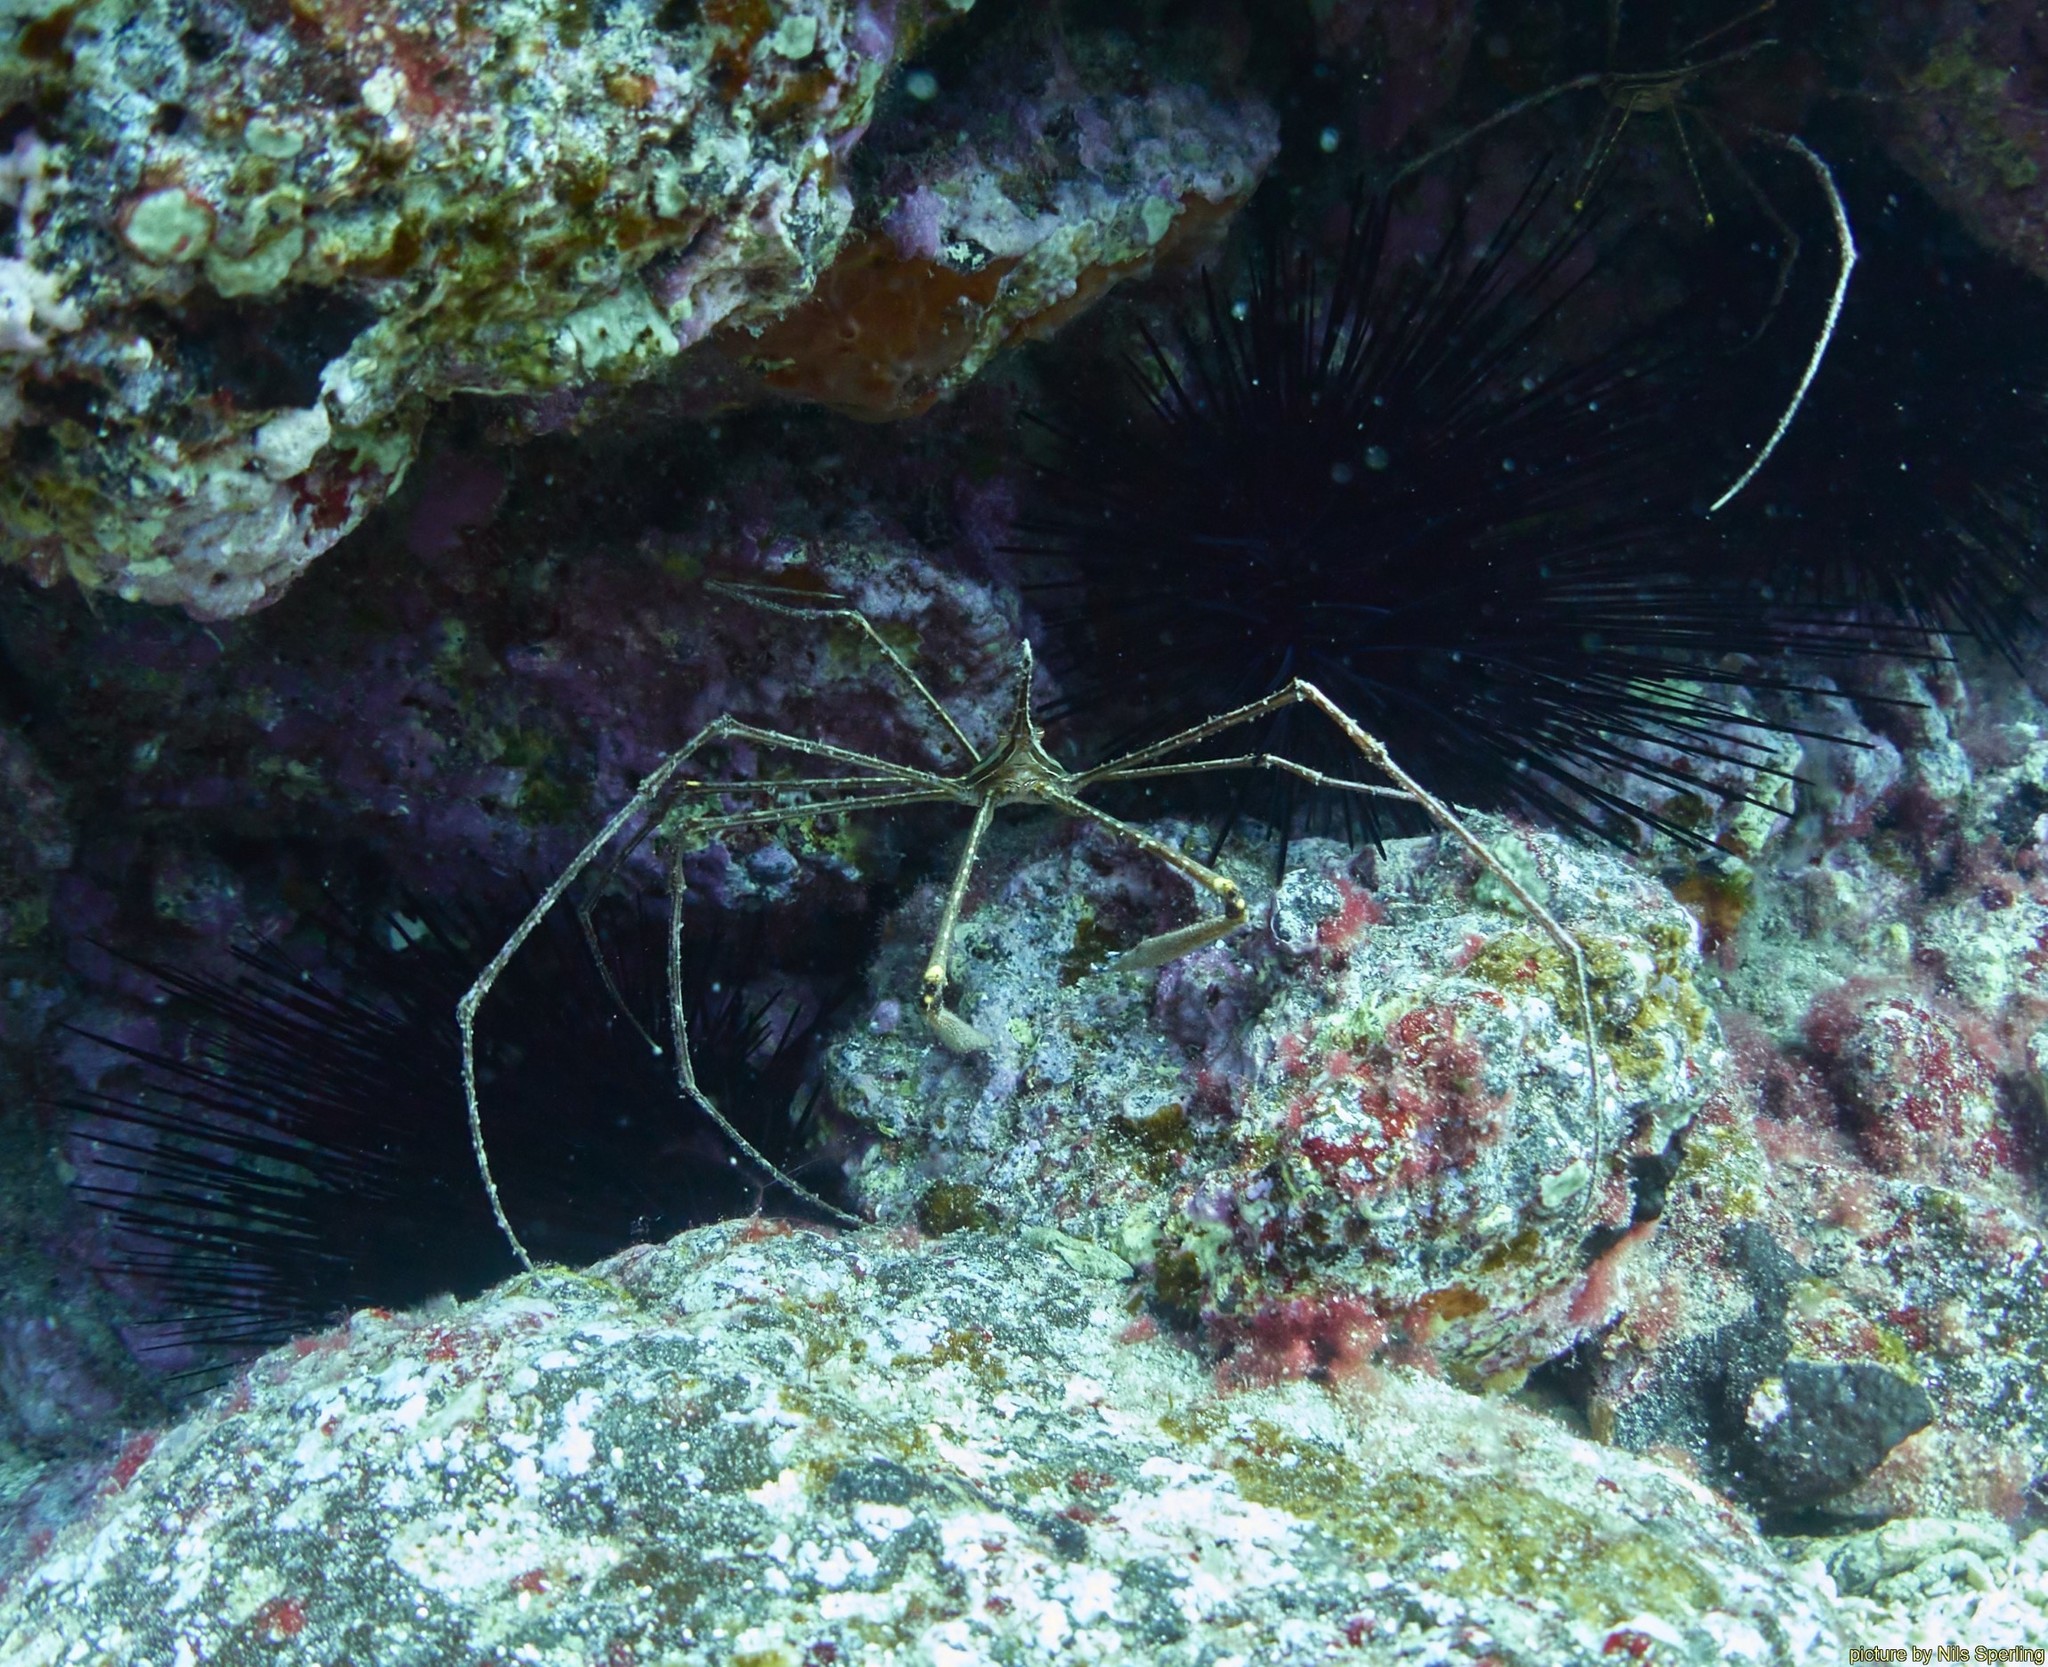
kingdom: Animalia
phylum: Arthropoda
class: Malacostraca
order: Decapoda
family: Inachoididae
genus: Stenorhynchus
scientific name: Stenorhynchus lanceolatus
